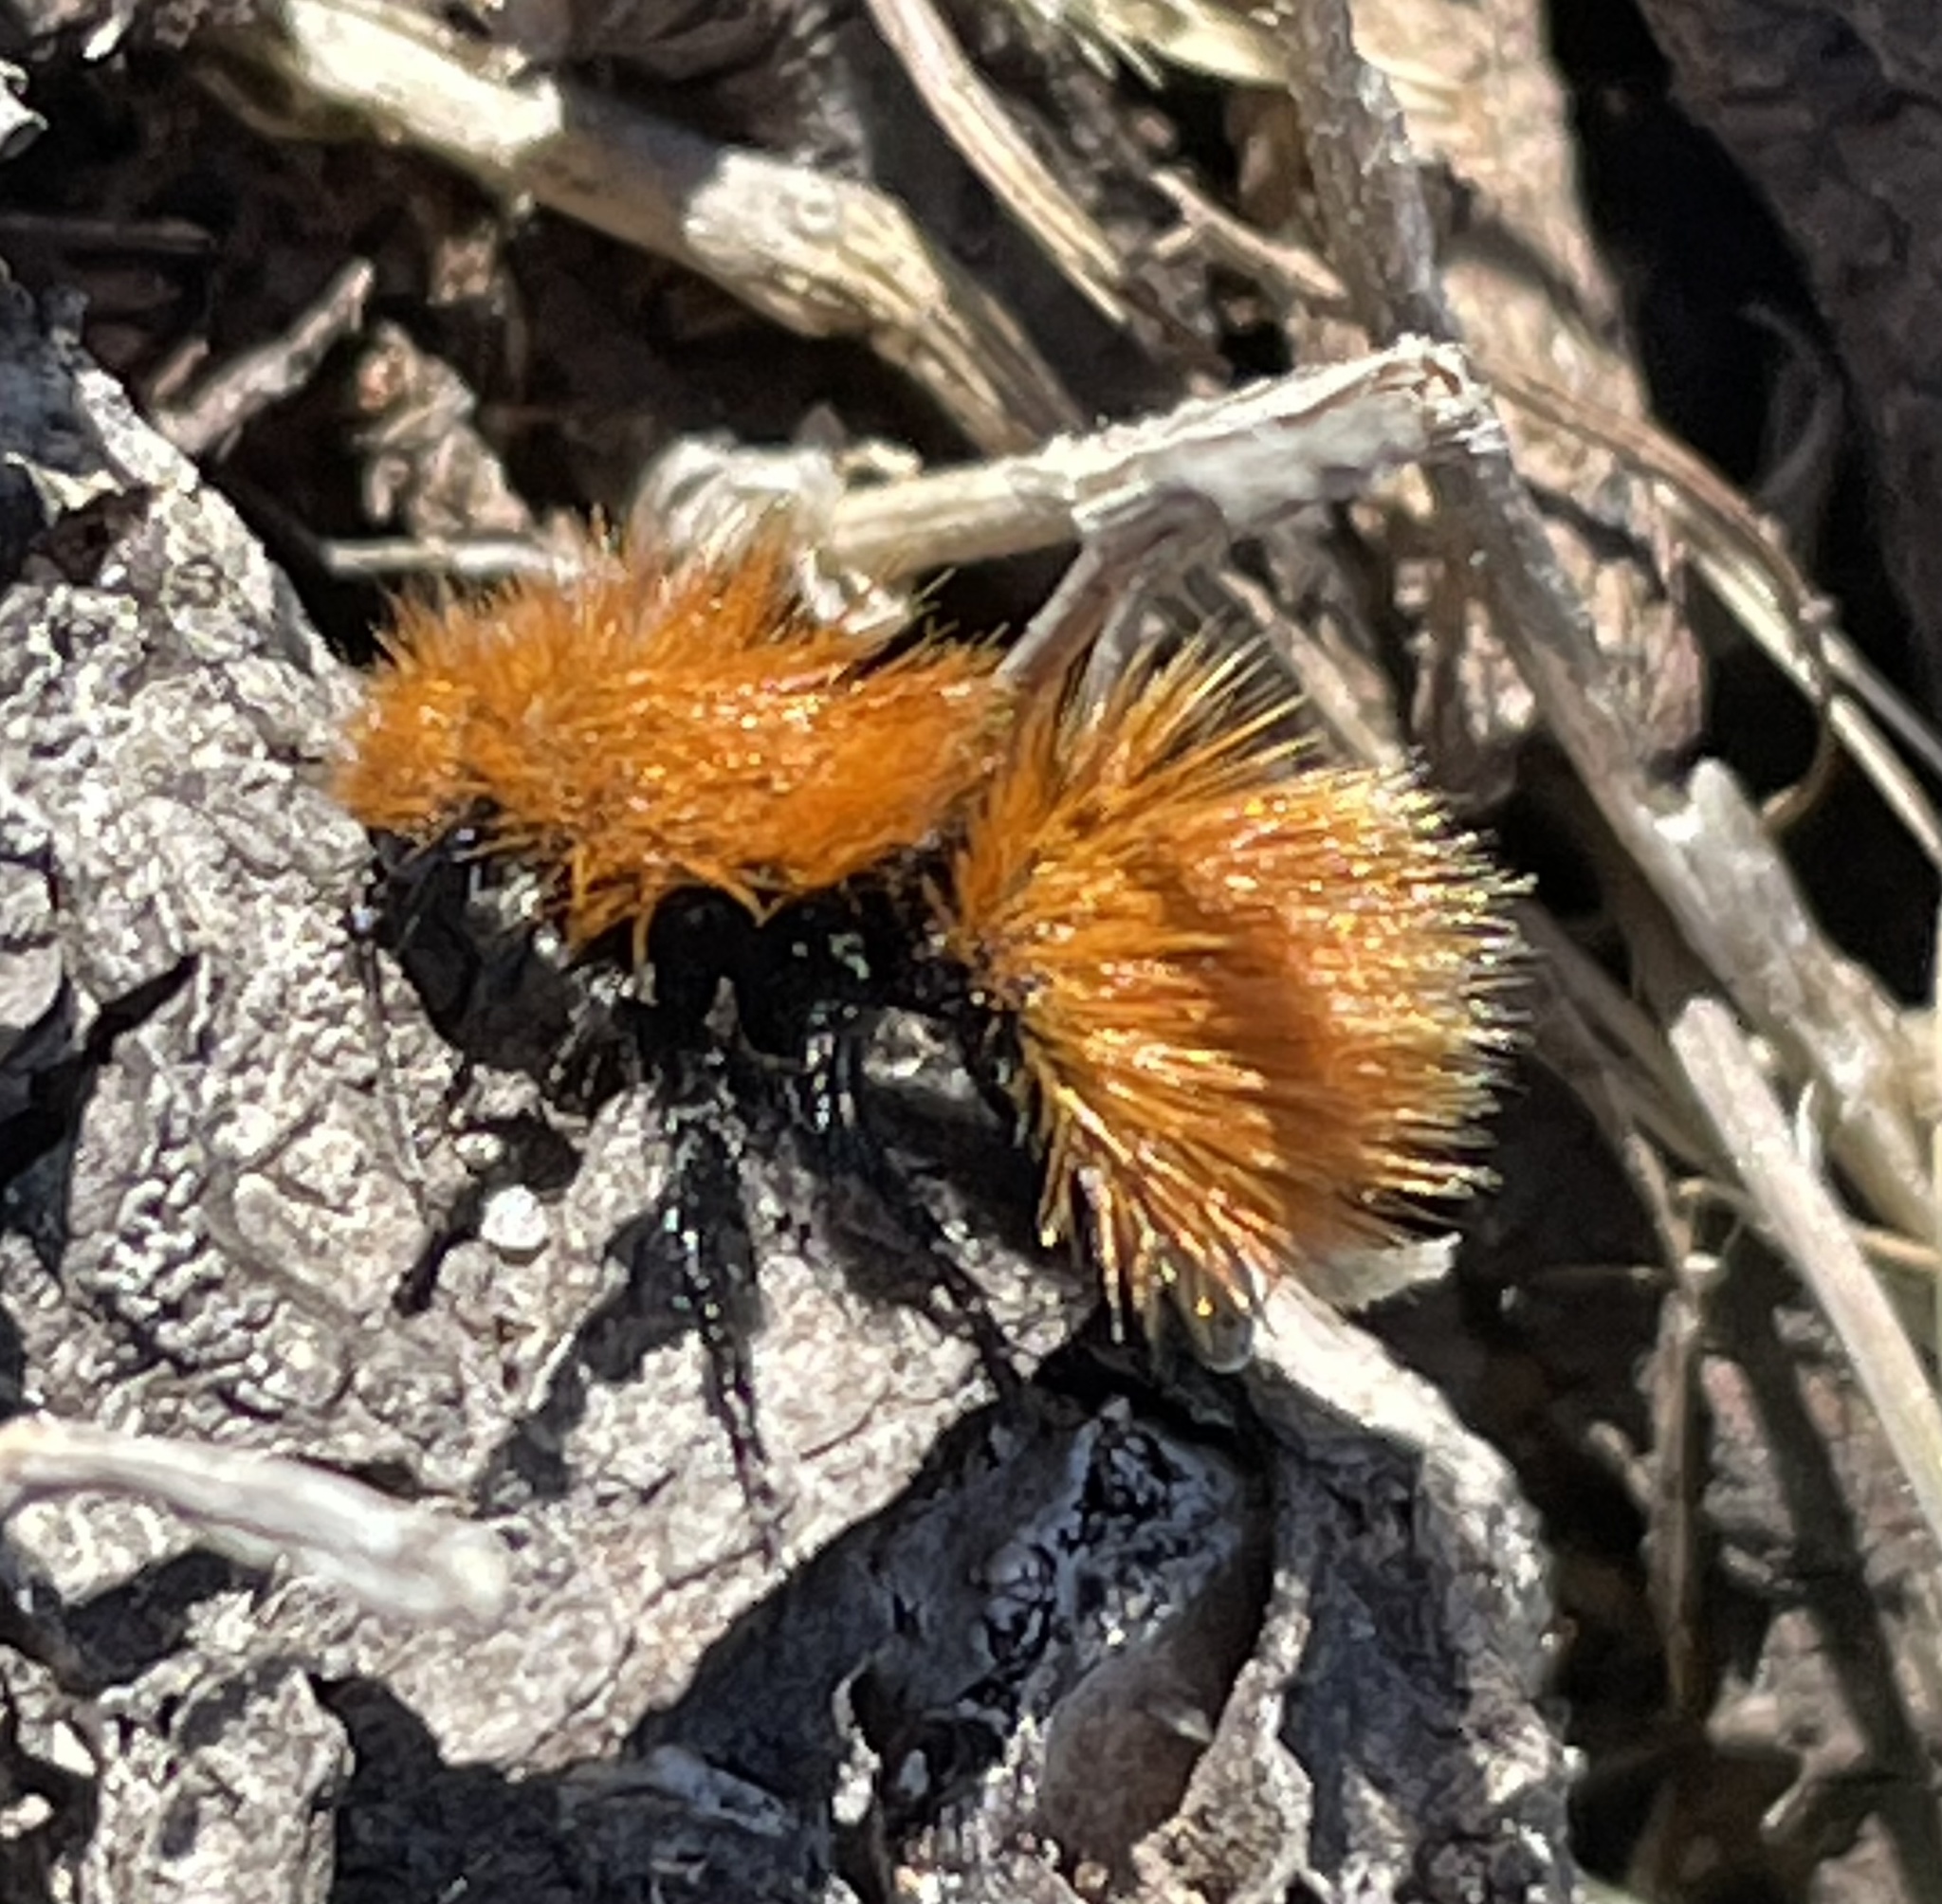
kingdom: Animalia
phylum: Arthropoda
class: Insecta
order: Hymenoptera
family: Mutillidae
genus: Dasymutilla
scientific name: Dasymutilla
